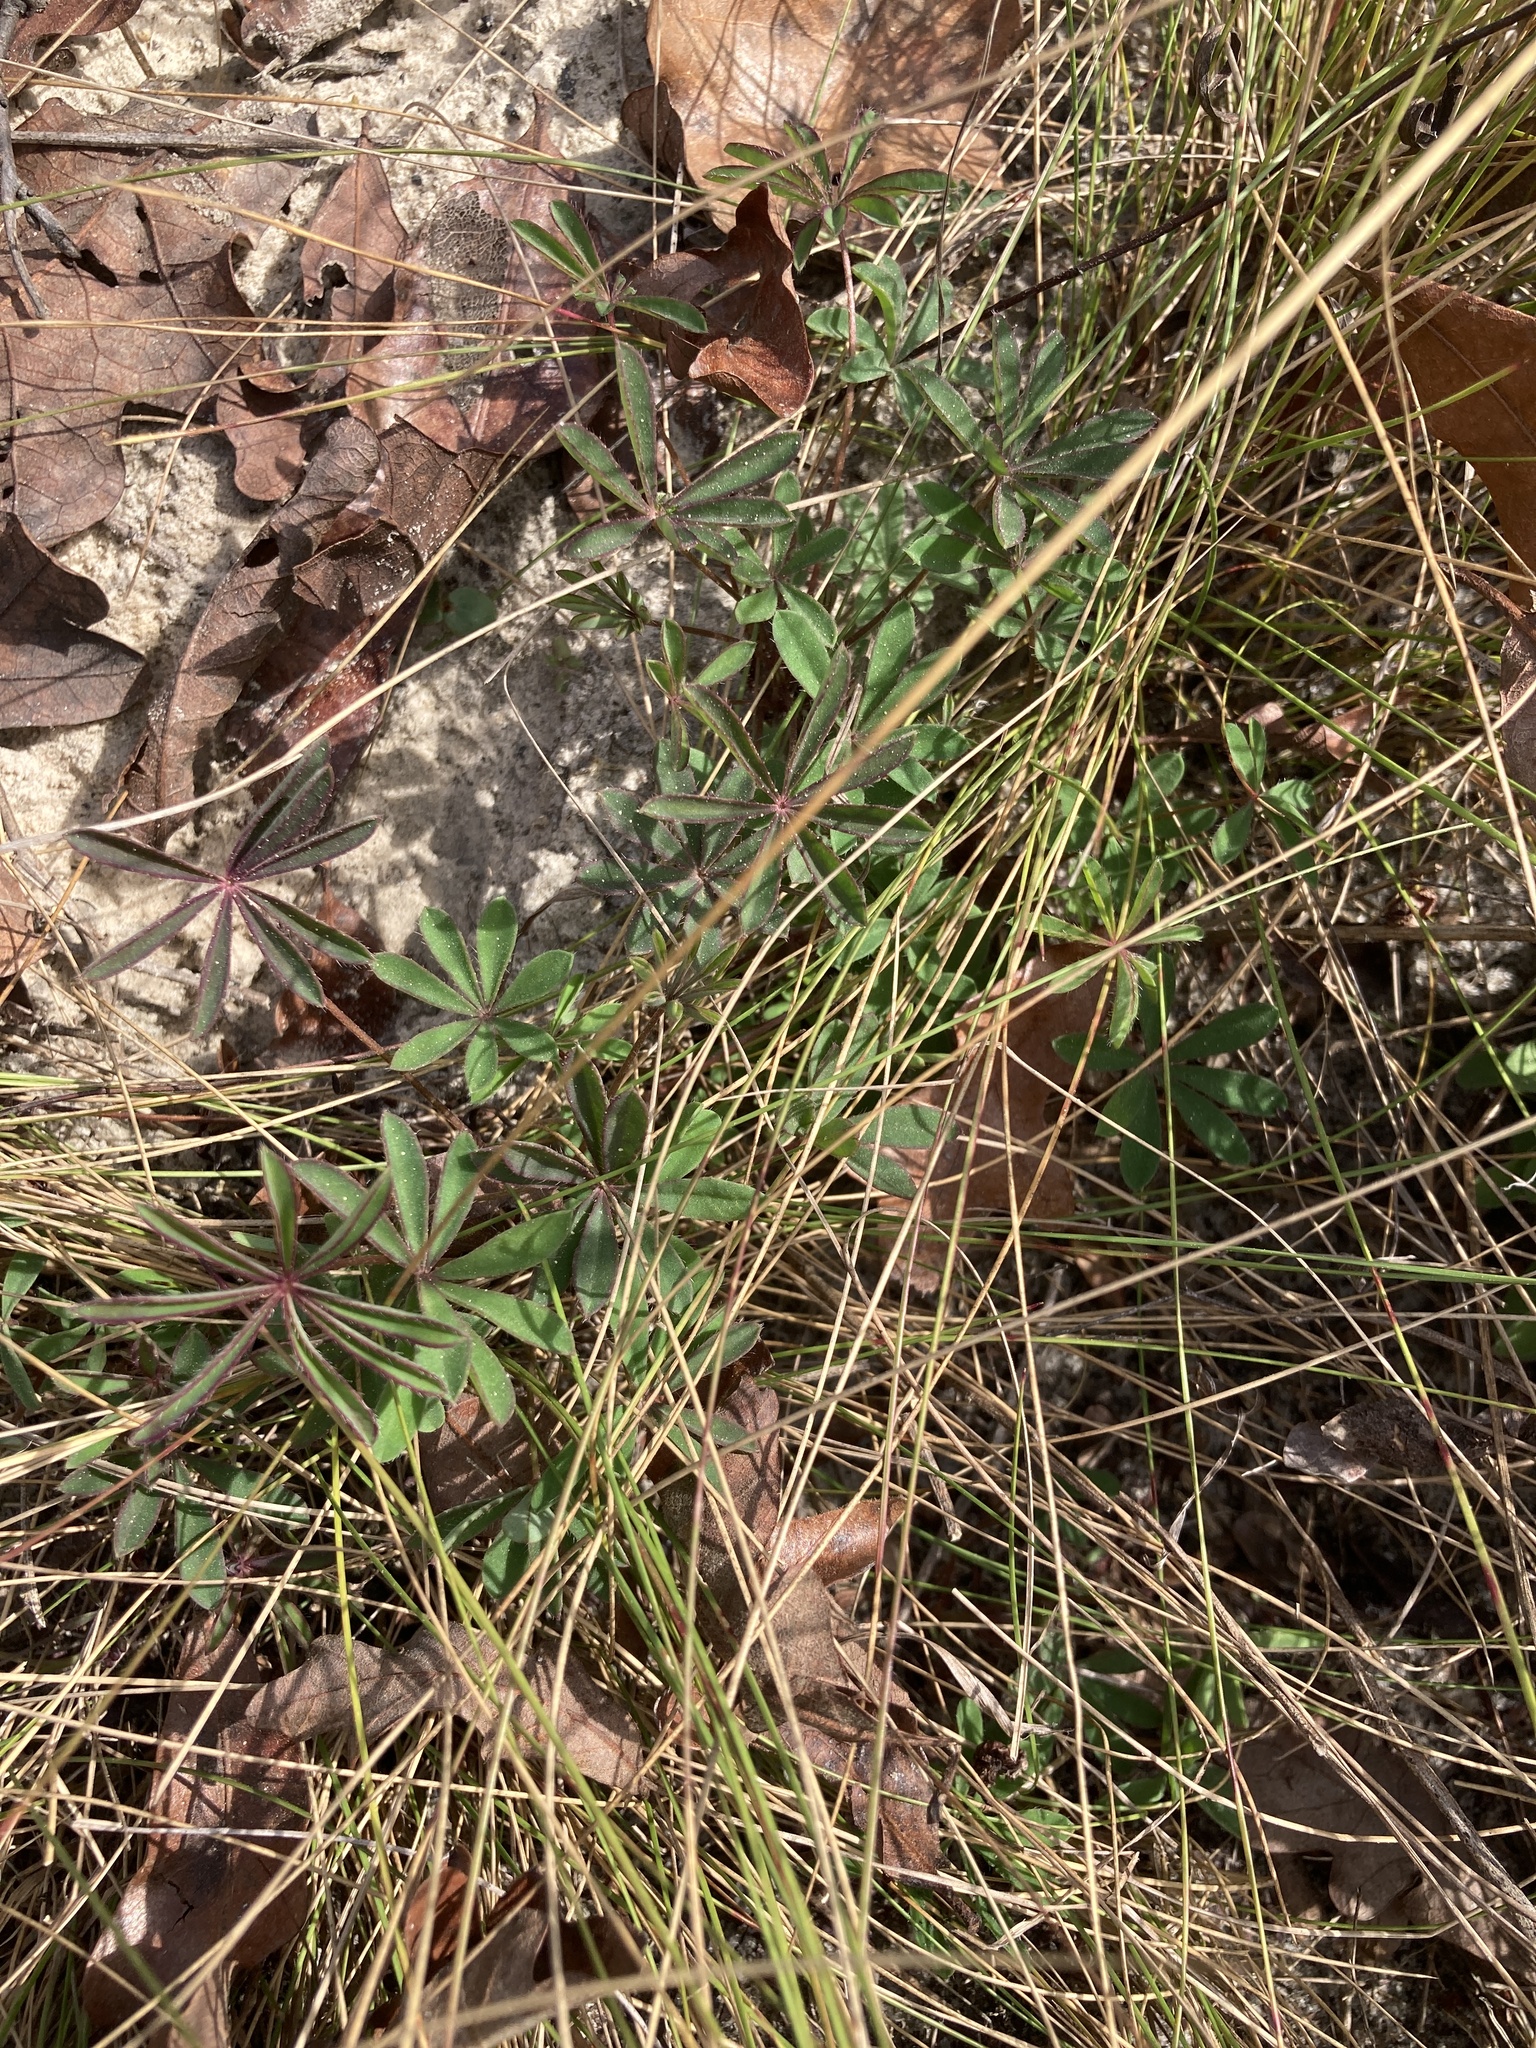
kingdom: Plantae
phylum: Tracheophyta
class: Magnoliopsida
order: Fabales
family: Fabaceae
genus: Lupinus
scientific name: Lupinus perennis
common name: Sundial lupine
